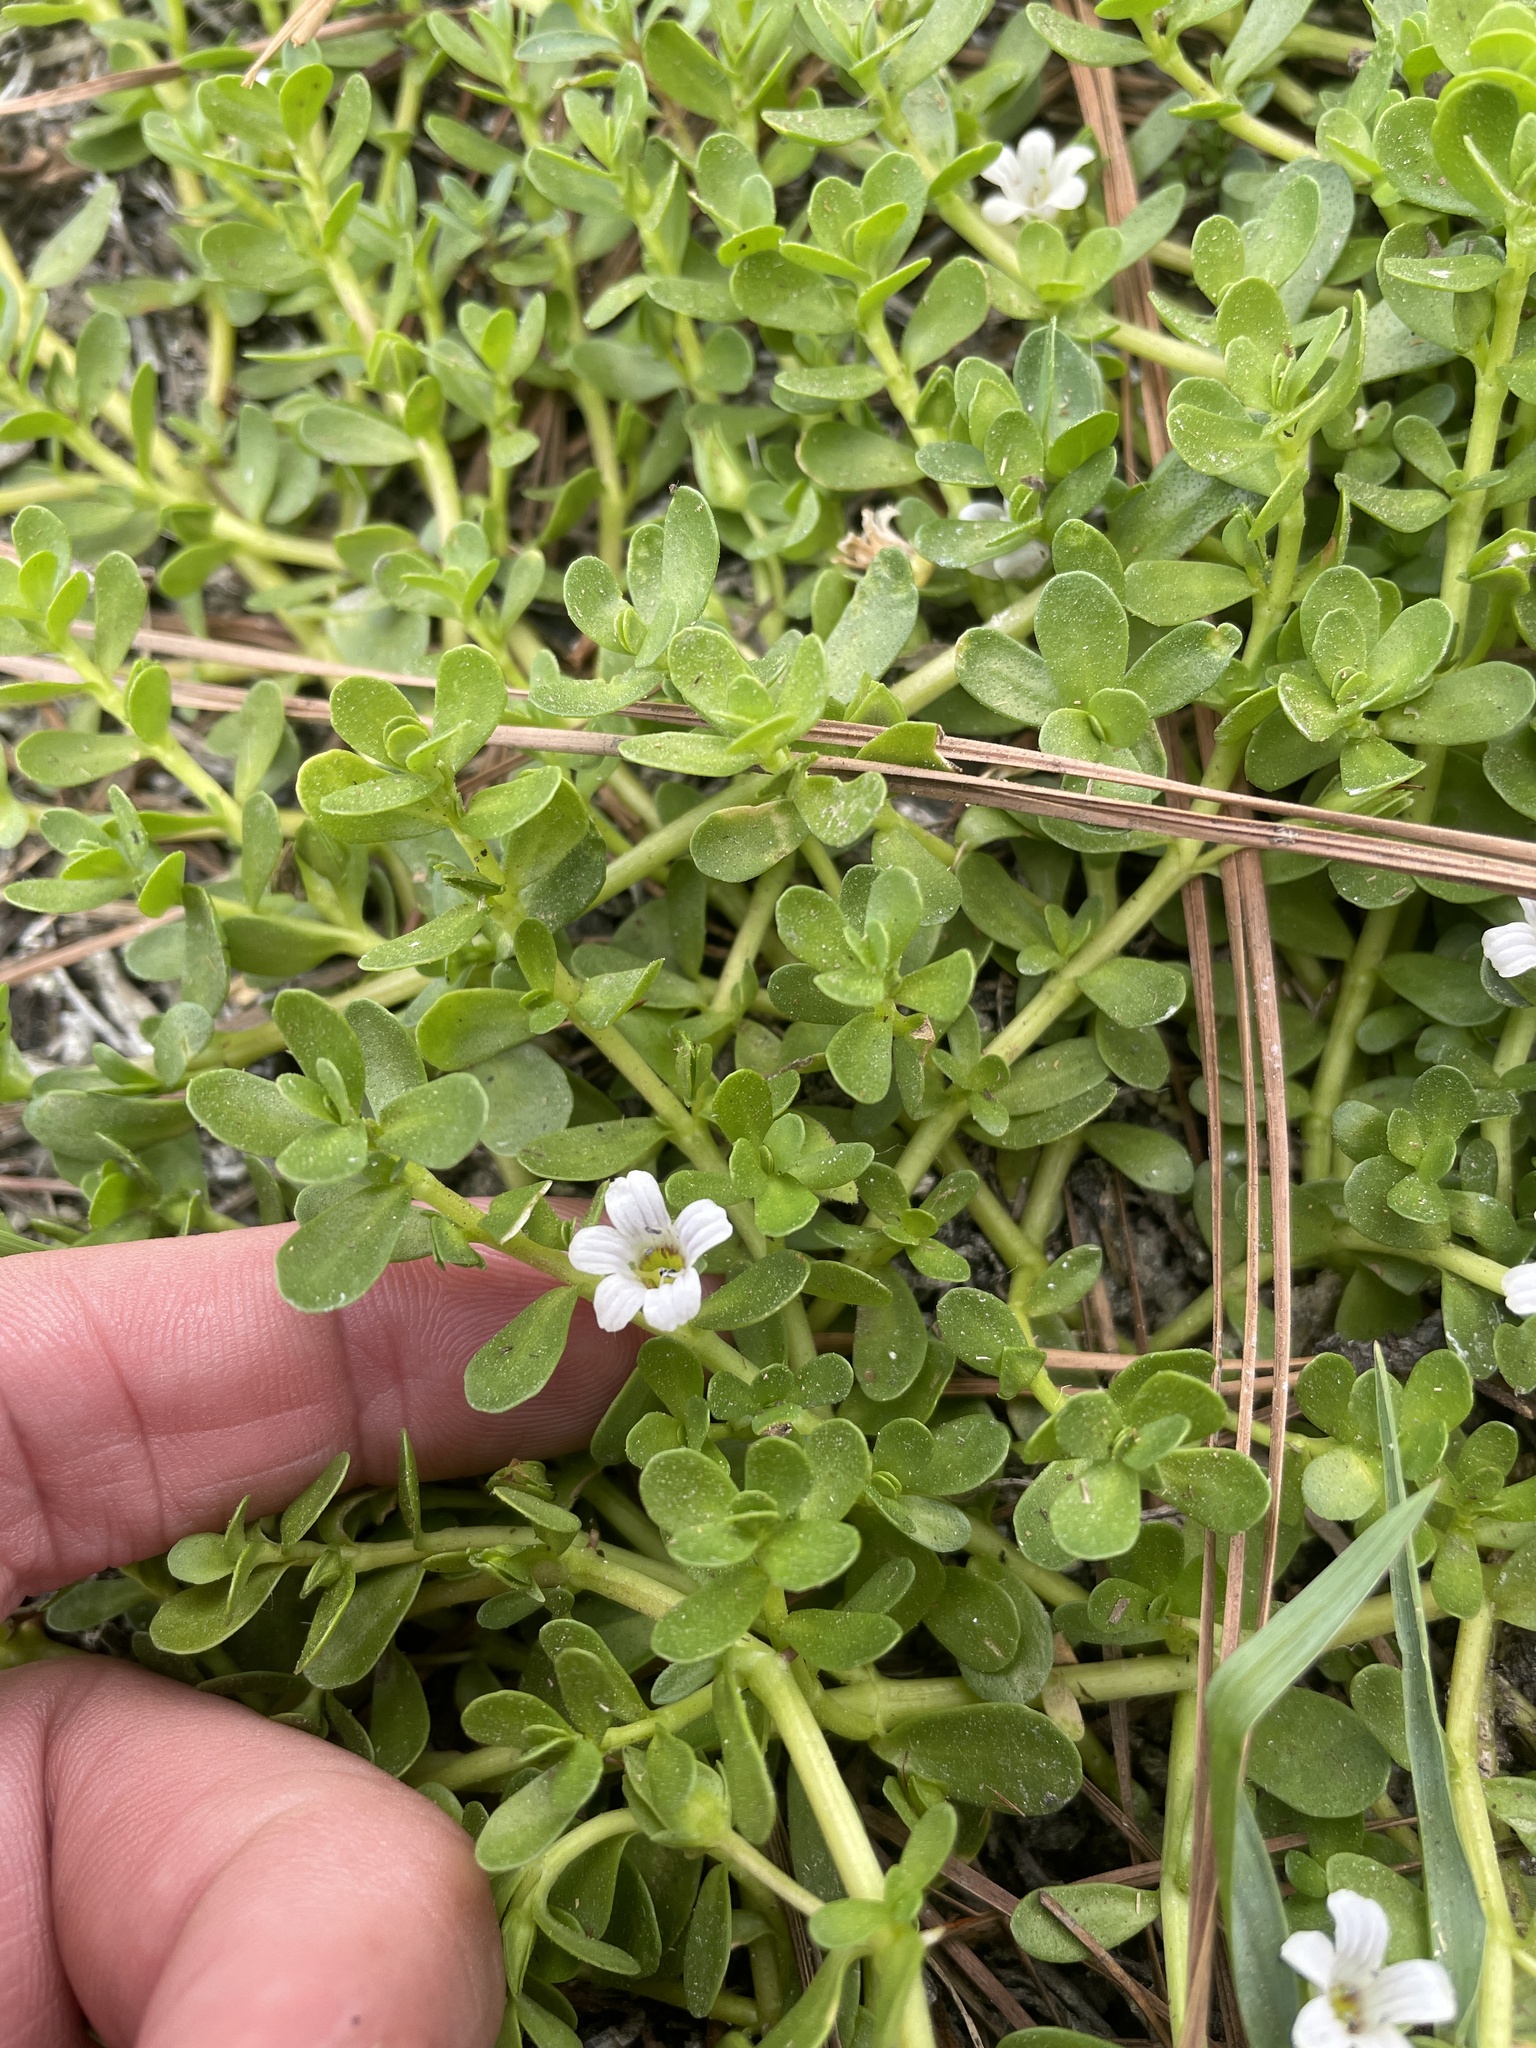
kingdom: Plantae
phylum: Tracheophyta
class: Magnoliopsida
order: Lamiales
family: Plantaginaceae
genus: Bacopa
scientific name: Bacopa monnieri
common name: Indian-pennywort
